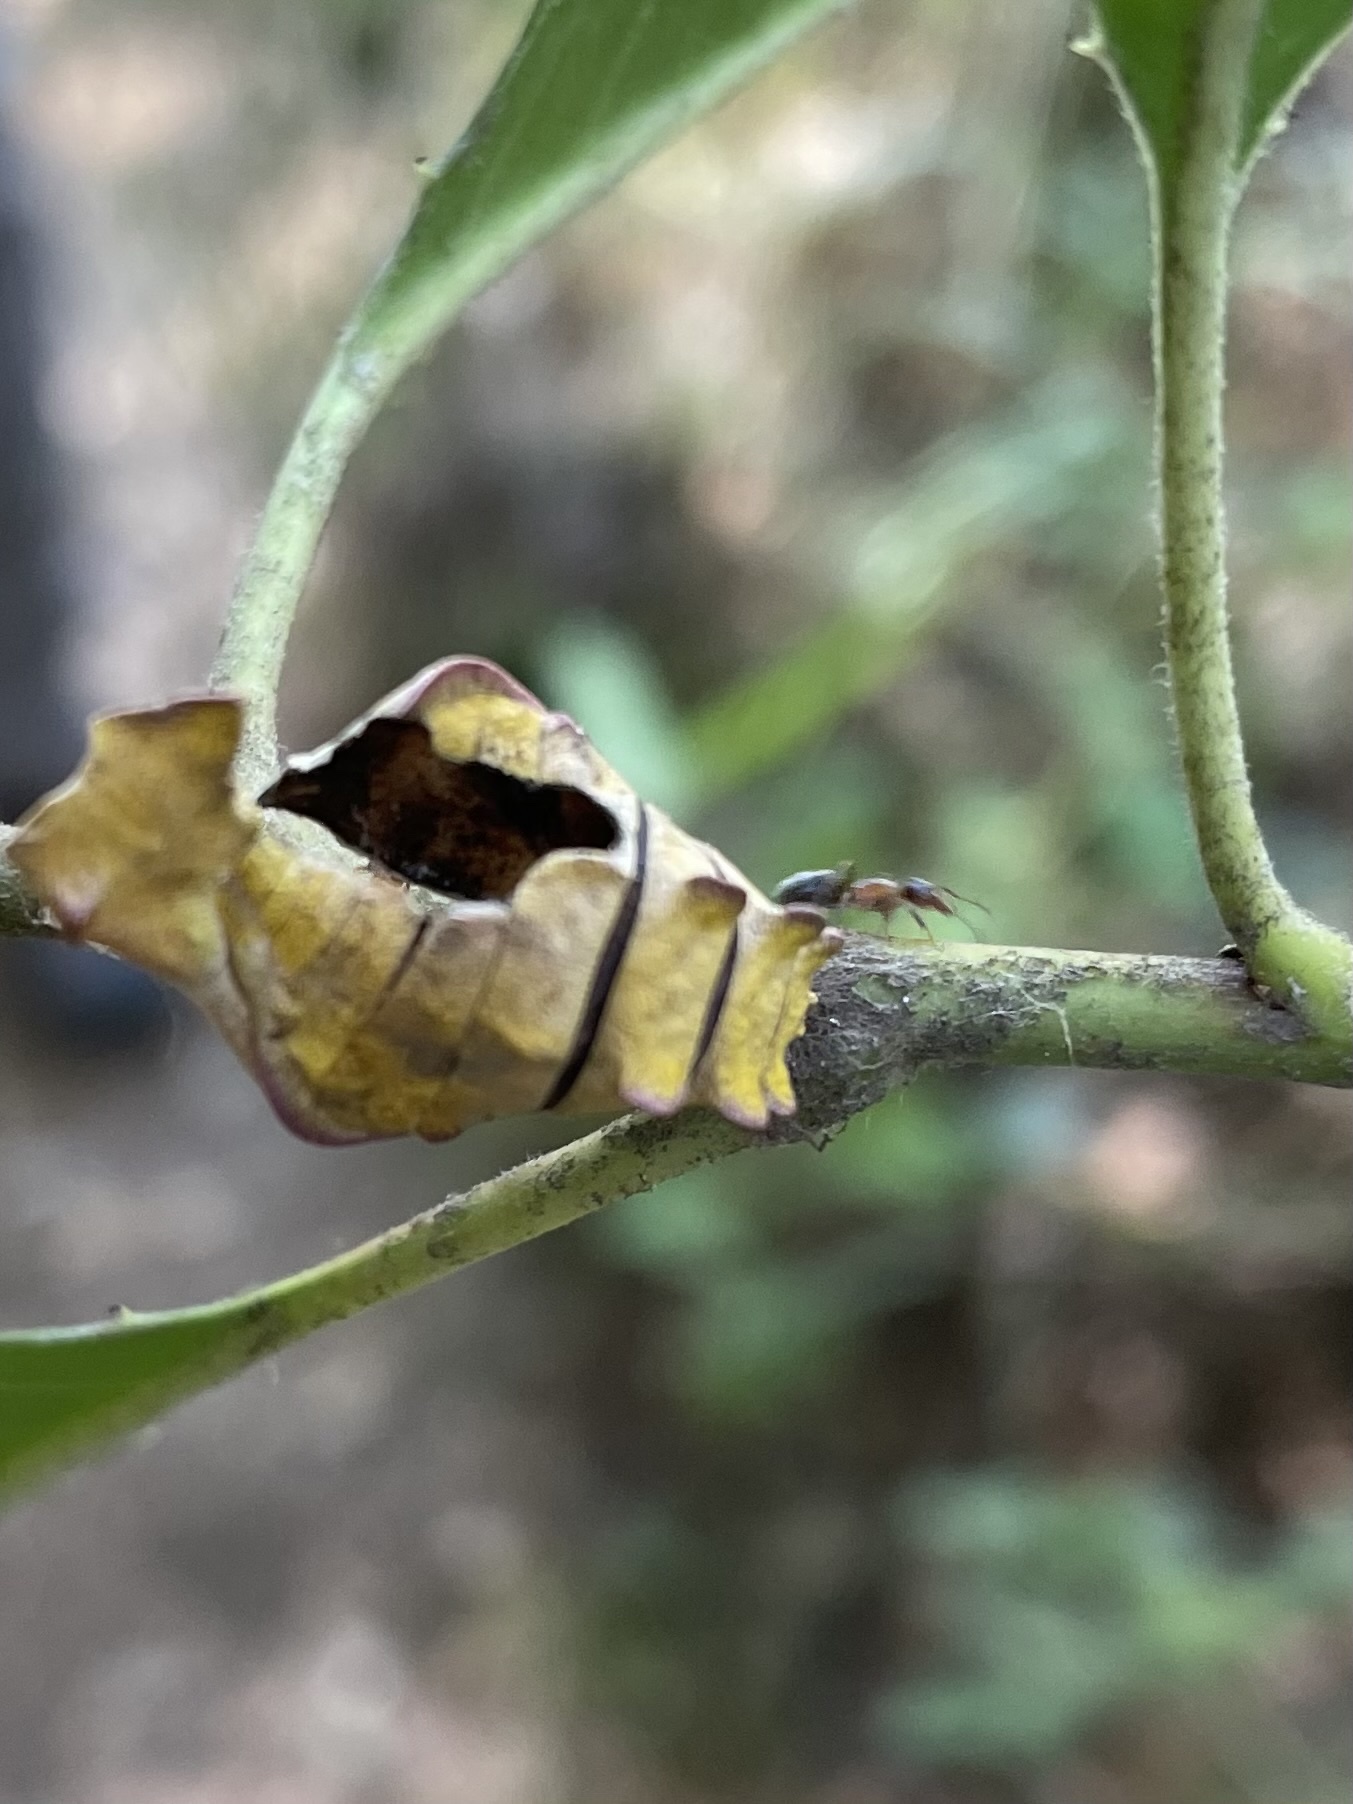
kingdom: Animalia
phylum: Arthropoda
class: Insecta
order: Lepidoptera
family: Papilionidae
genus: Battus
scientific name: Battus philenor
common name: Pipevine swallowtail
